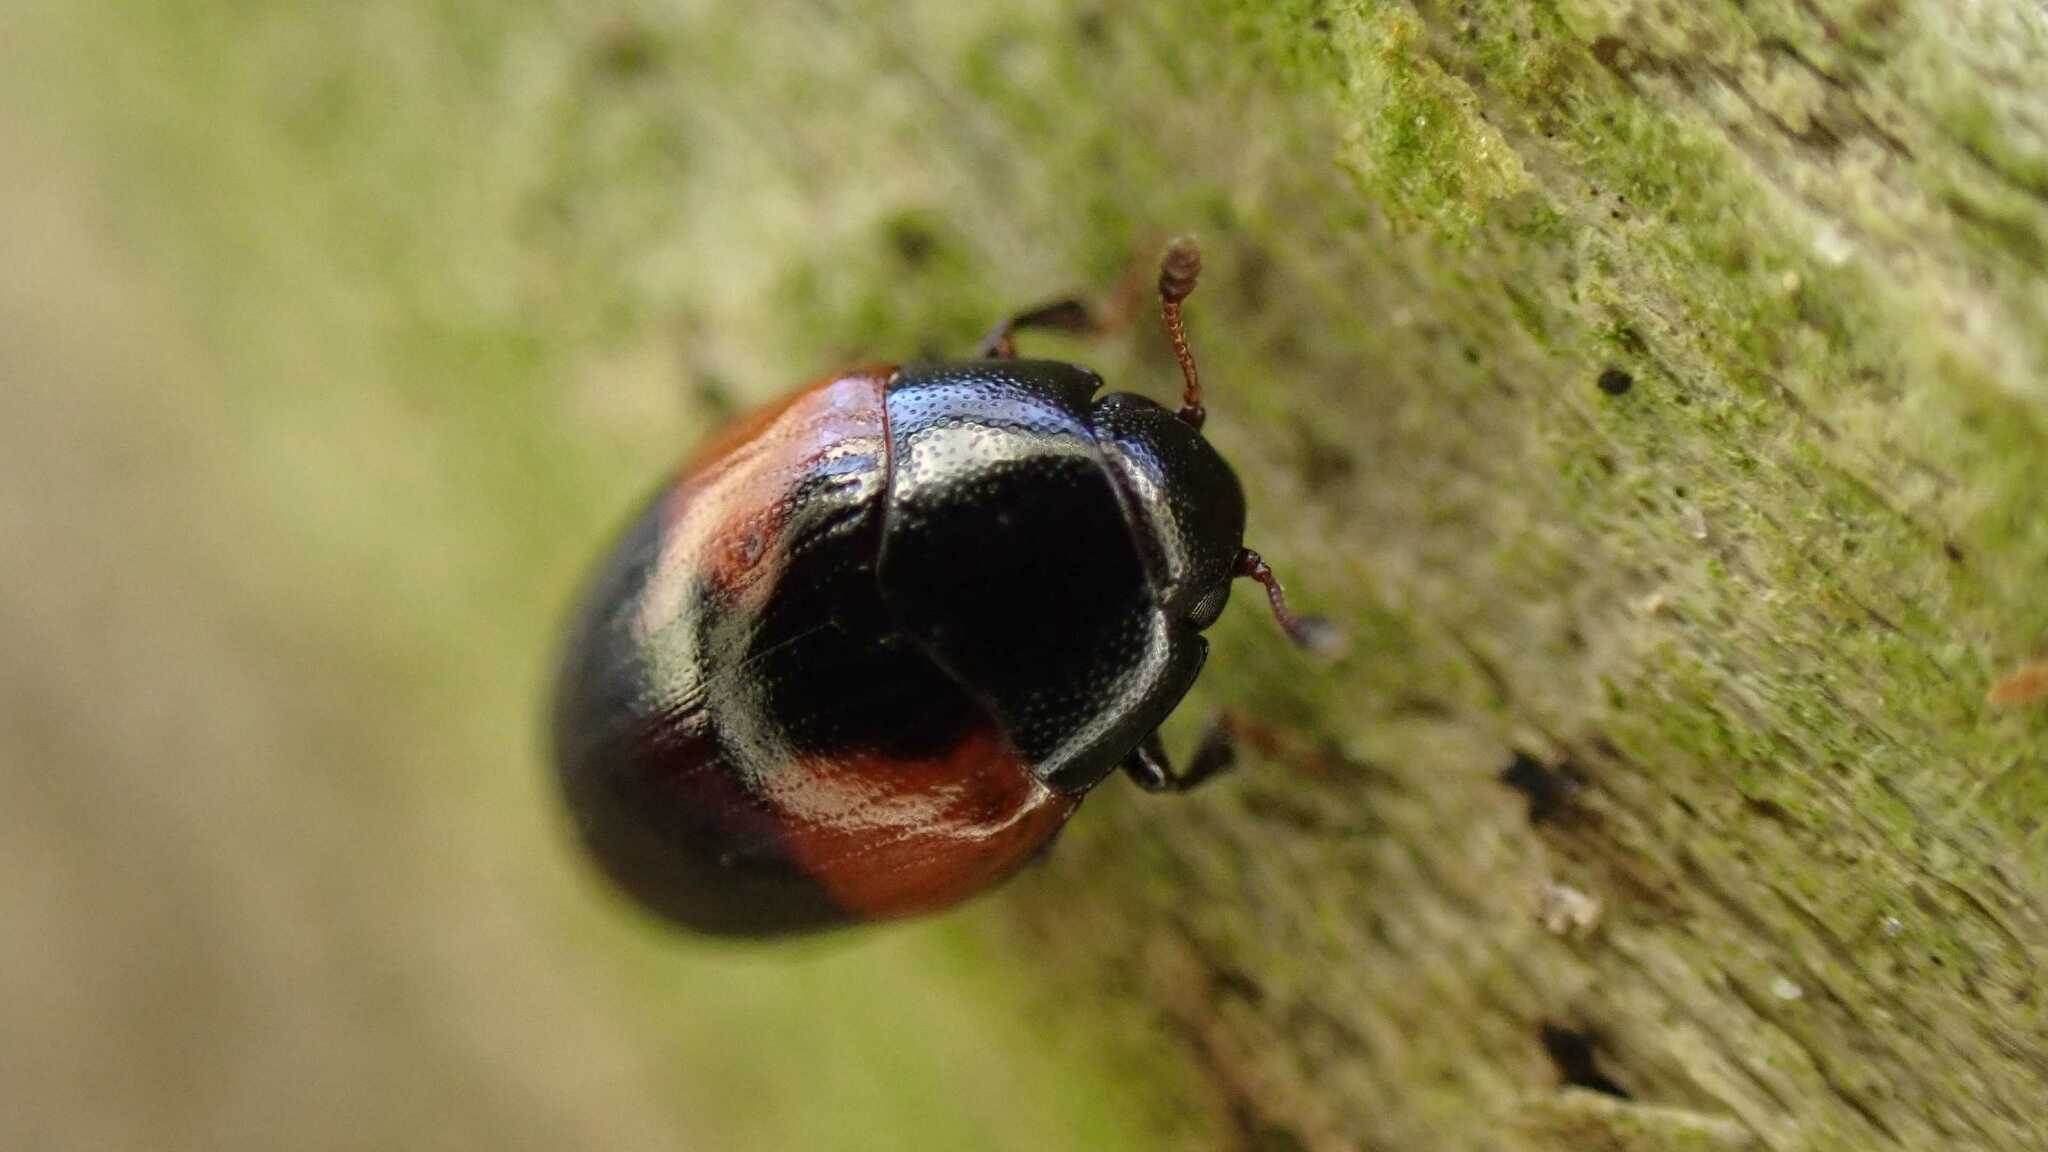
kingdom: Animalia
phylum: Arthropoda
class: Insecta
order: Coleoptera
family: Erotylidae
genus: Tritoma
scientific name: Tritoma bipustulata
